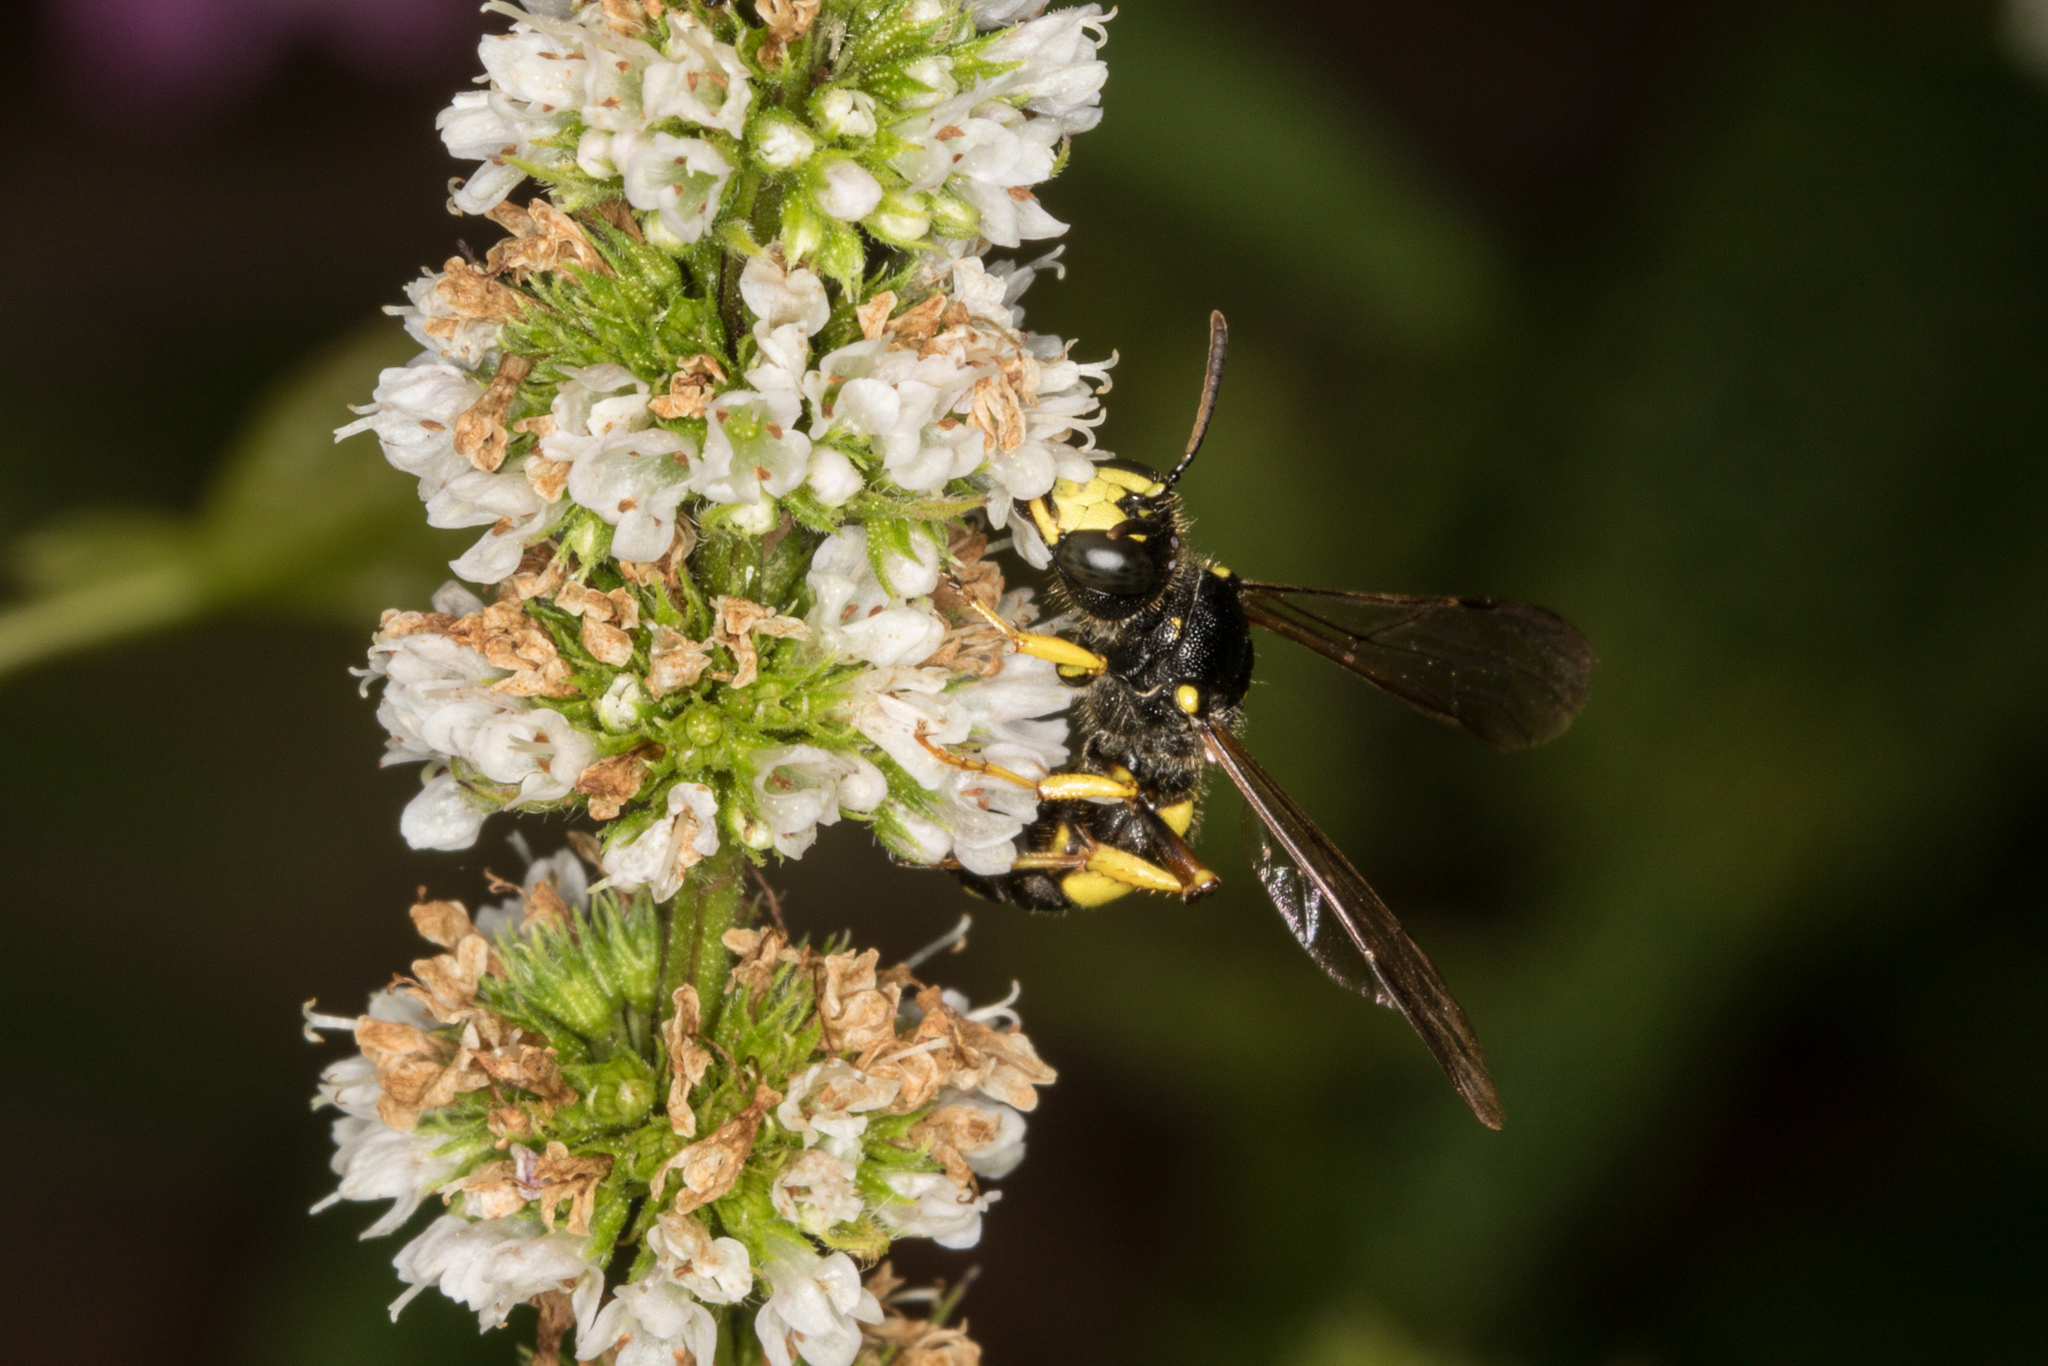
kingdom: Animalia
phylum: Arthropoda
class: Insecta
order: Hymenoptera
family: Crabronidae
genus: Cerceris
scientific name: Cerceris rybyensis
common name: Ornate tailed digger wasp
